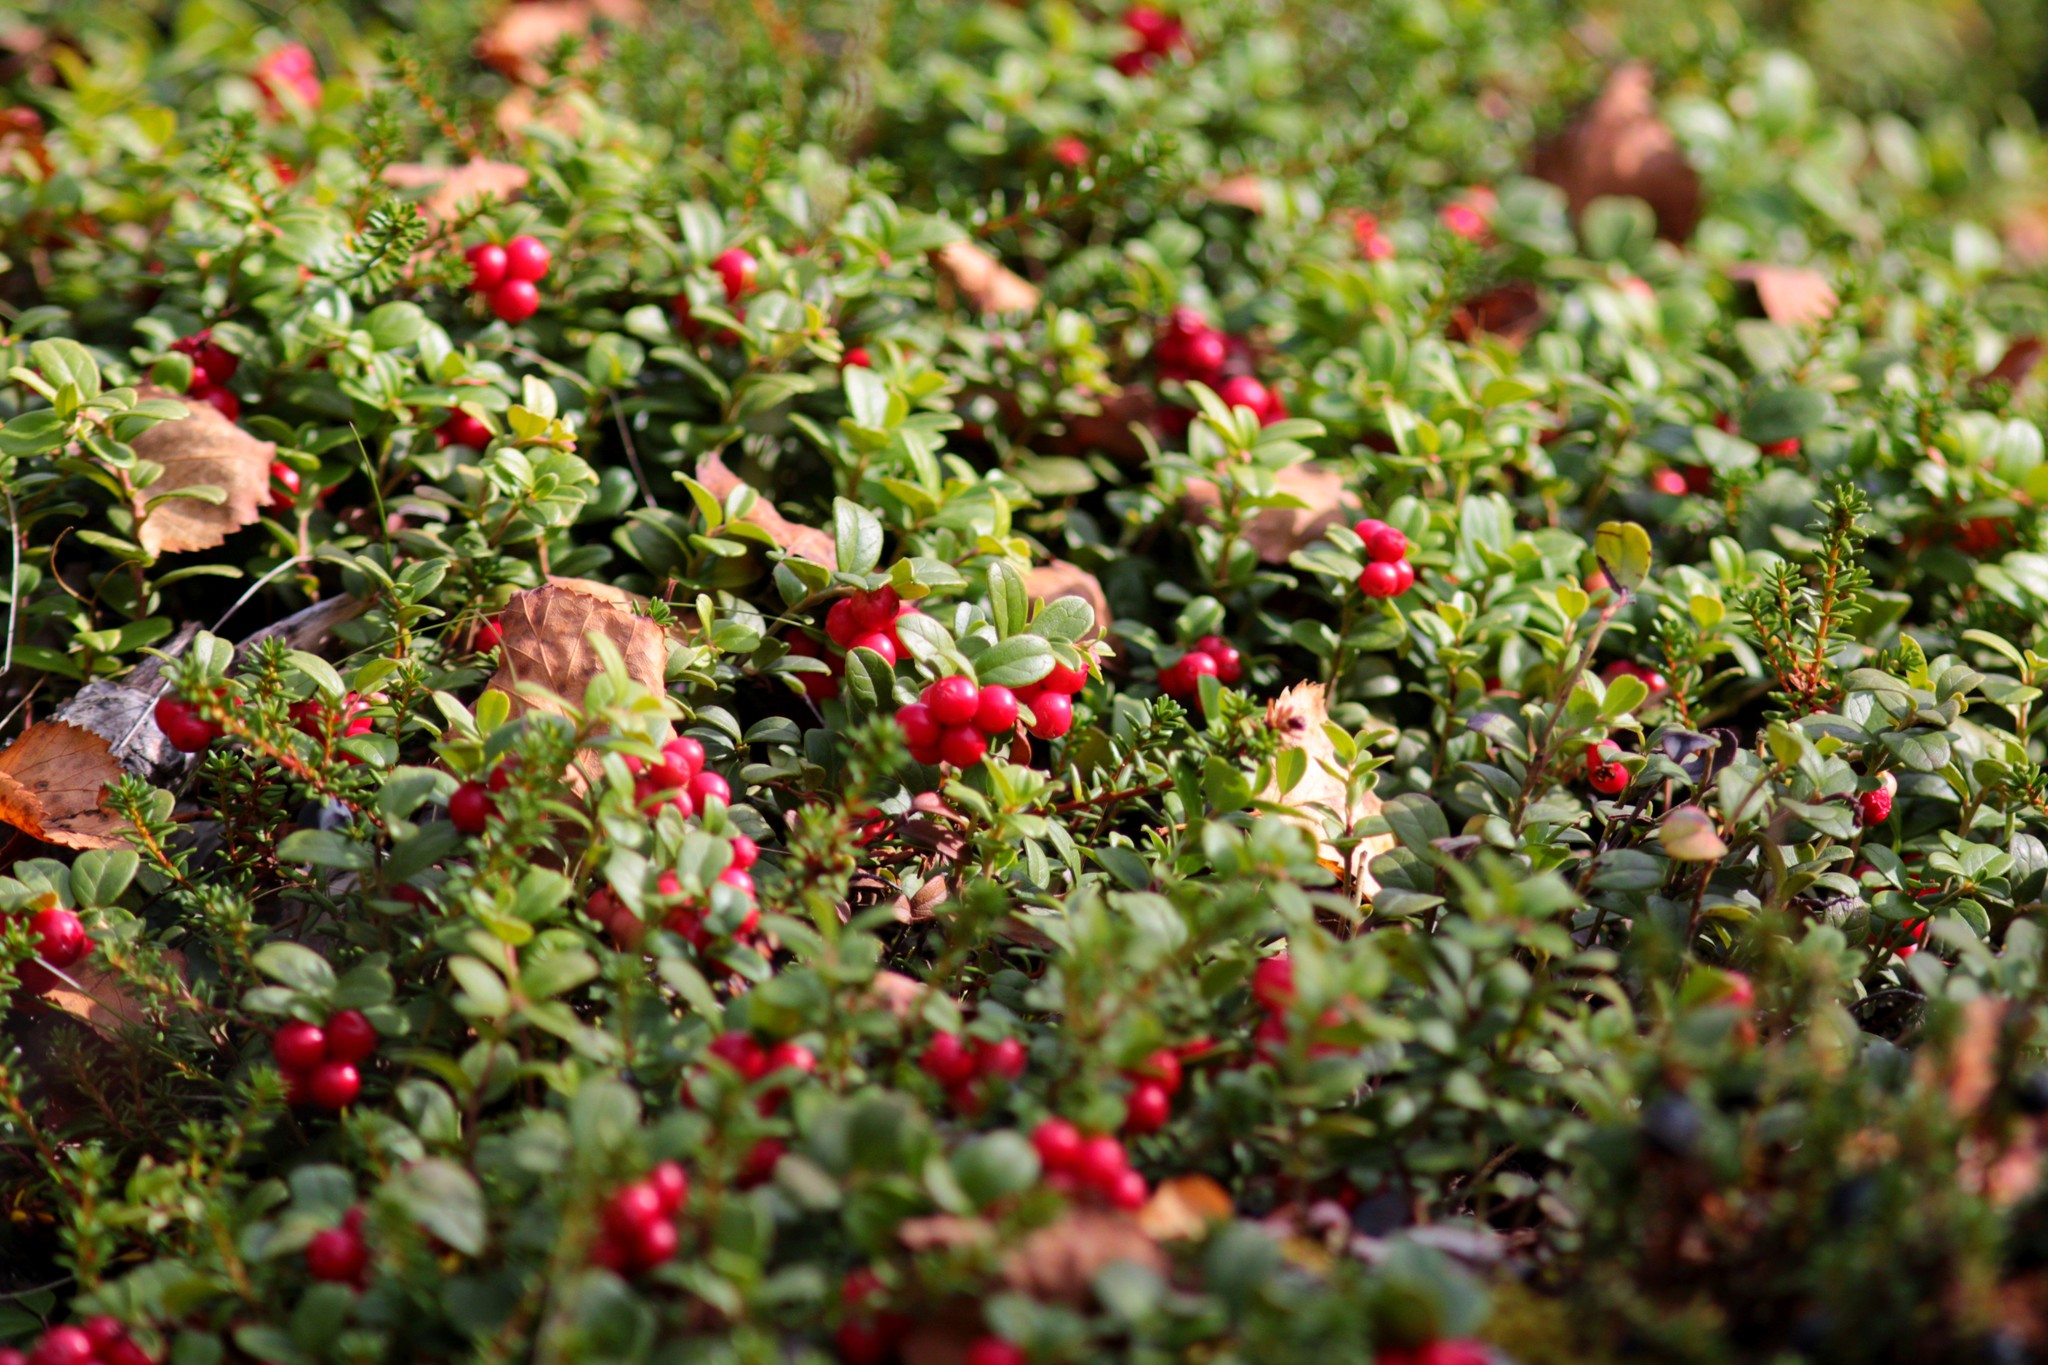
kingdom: Plantae
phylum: Tracheophyta
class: Magnoliopsida
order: Ericales
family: Ericaceae
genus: Vaccinium
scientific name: Vaccinium vitis-idaea
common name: Cowberry
